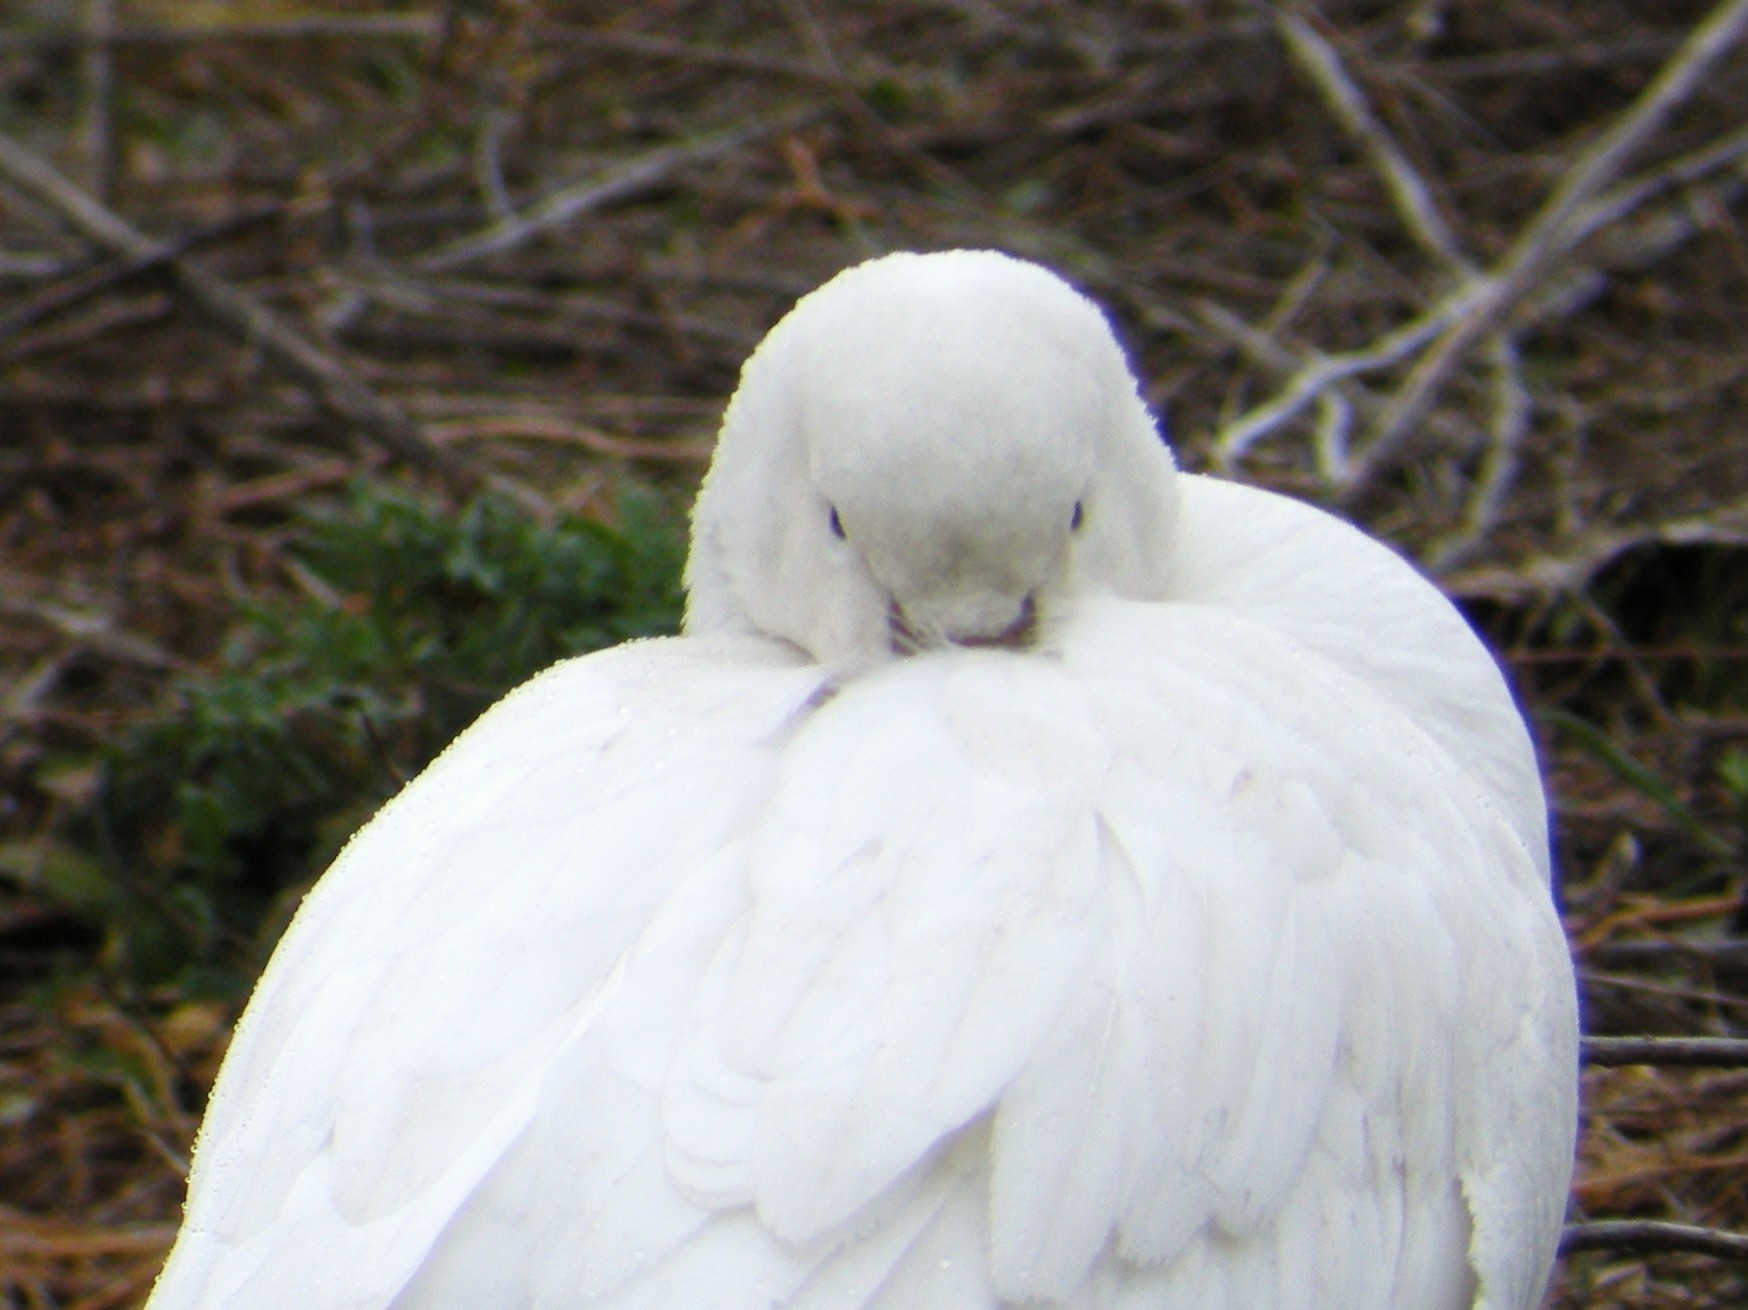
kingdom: Animalia
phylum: Chordata
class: Aves
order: Anseriformes
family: Anatidae
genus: Anser
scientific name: Anser caerulescens
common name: Snow goose
